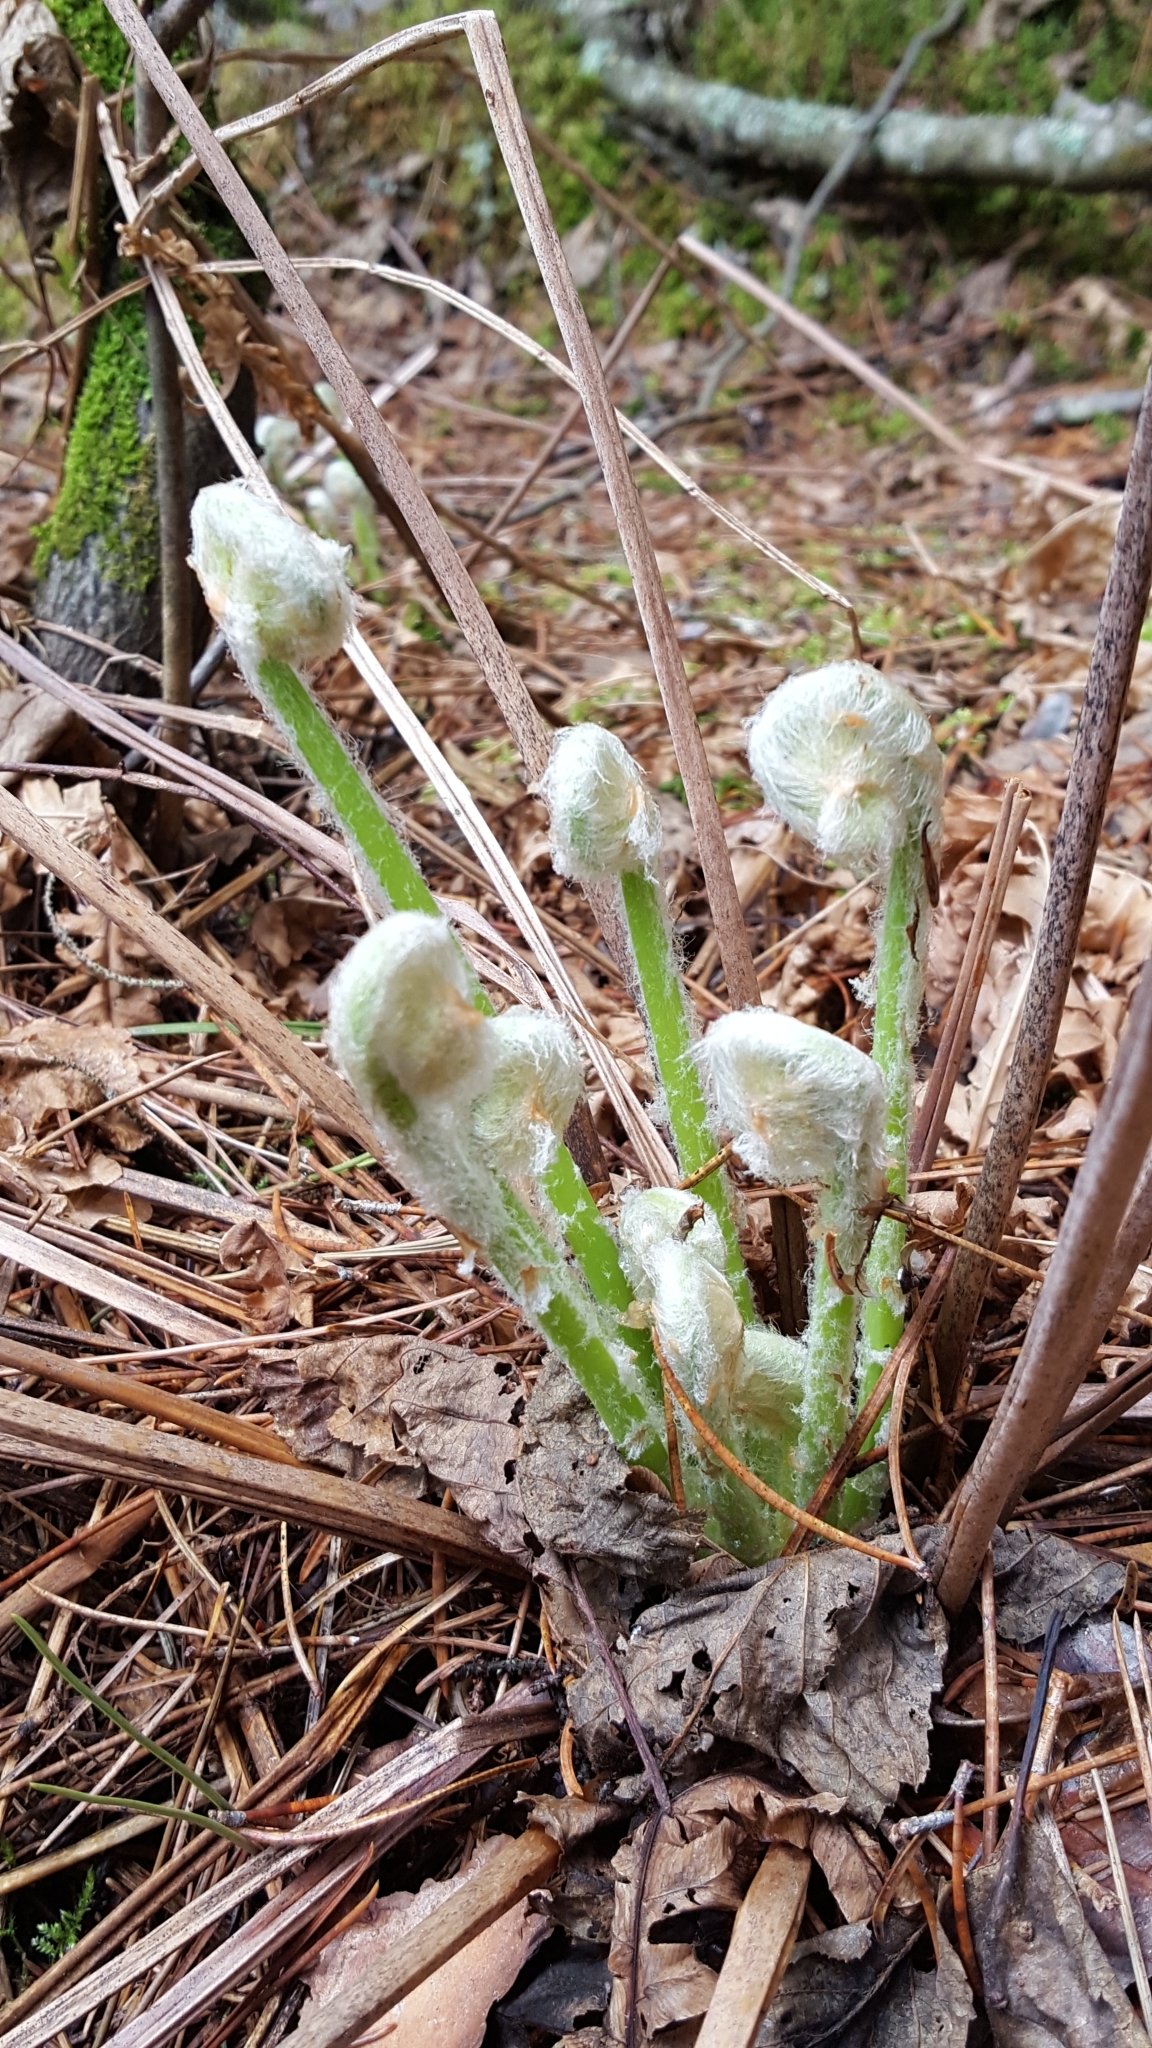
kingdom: Plantae
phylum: Tracheophyta
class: Polypodiopsida
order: Osmundales
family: Osmundaceae
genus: Claytosmunda
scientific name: Claytosmunda claytoniana
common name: Clayton's fern
